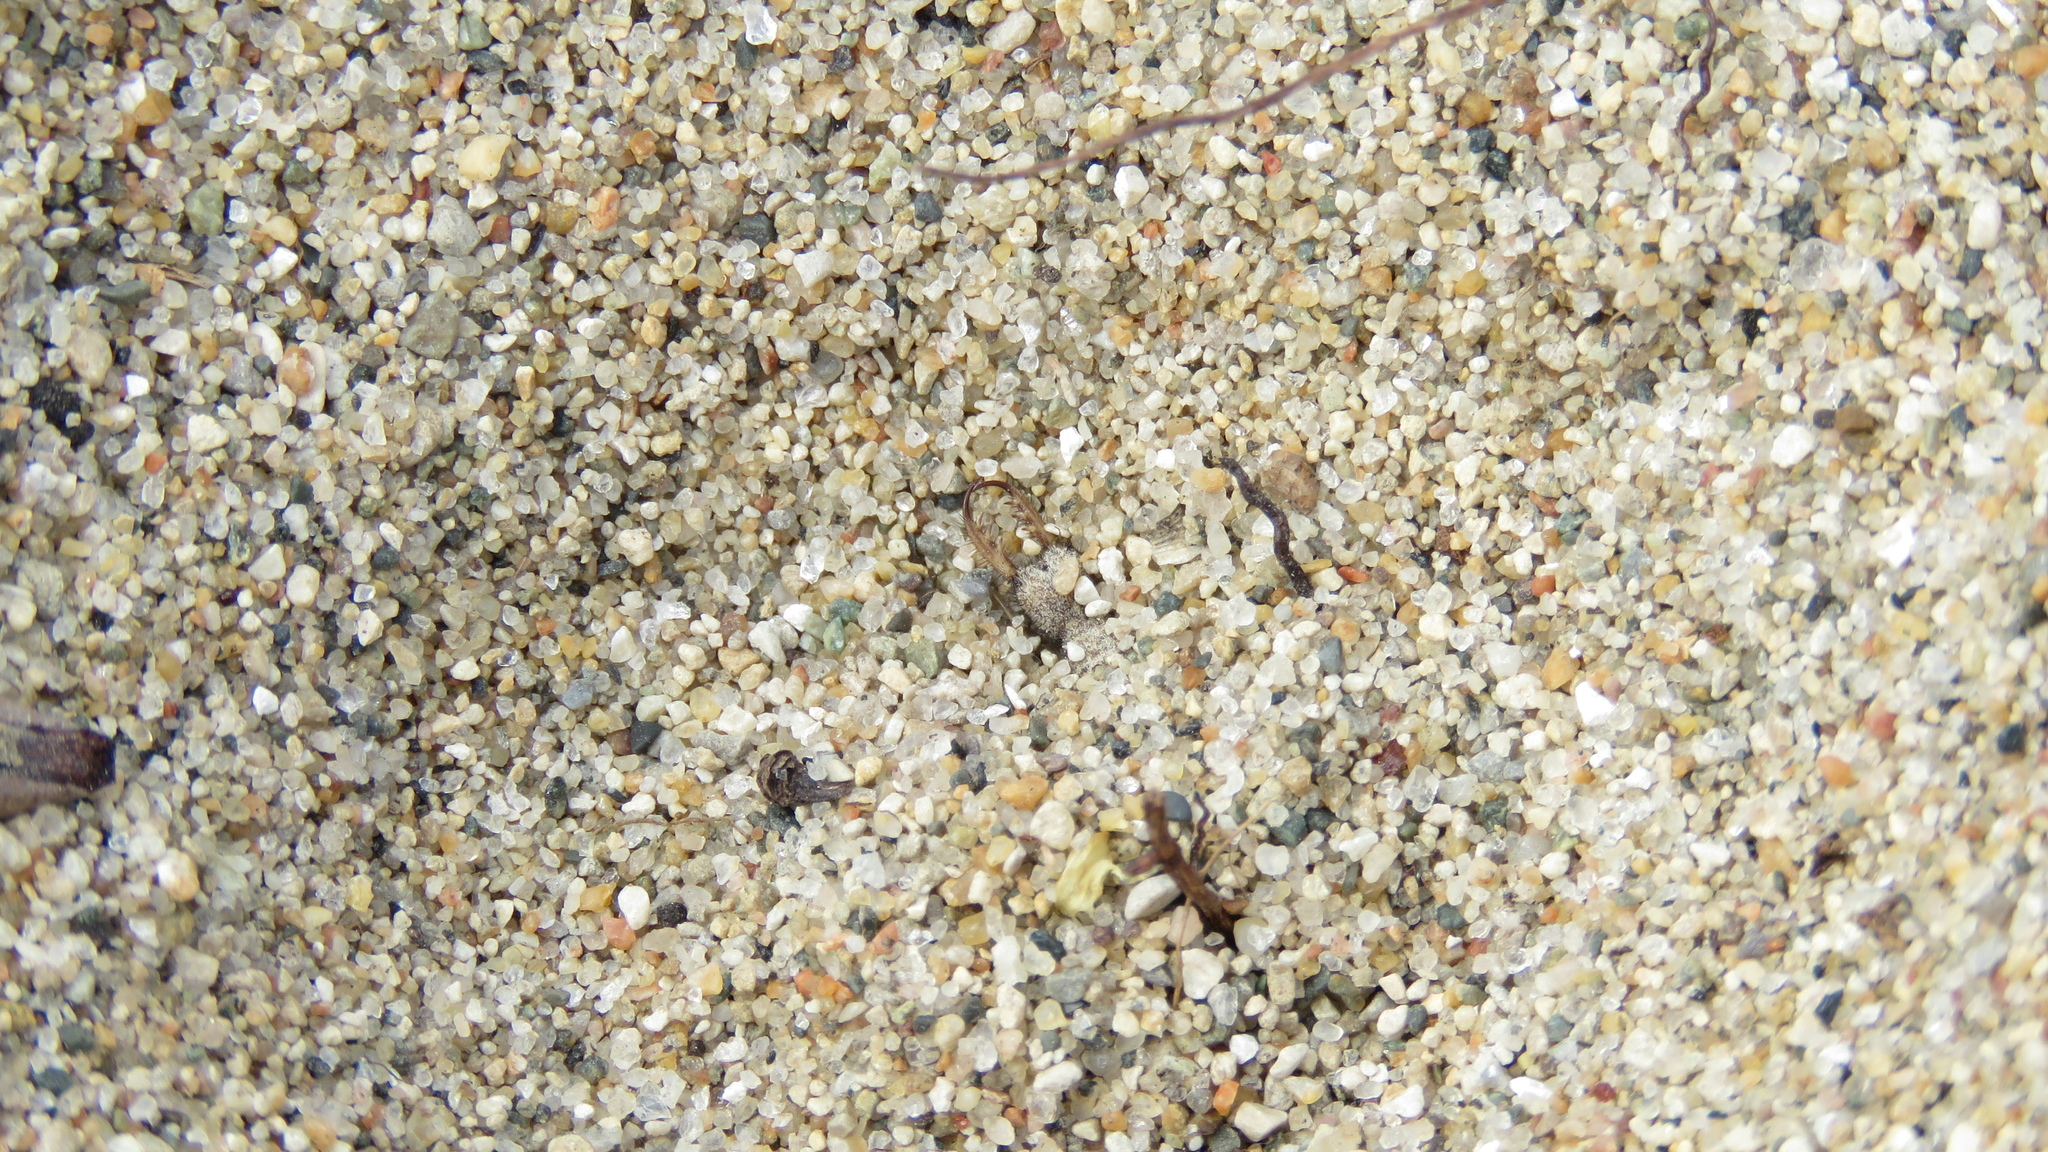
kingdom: Animalia
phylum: Arthropoda
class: Insecta
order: Neuroptera
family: Myrmeleontidae
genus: Myrmeleon
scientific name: Myrmeleon immaculatus
